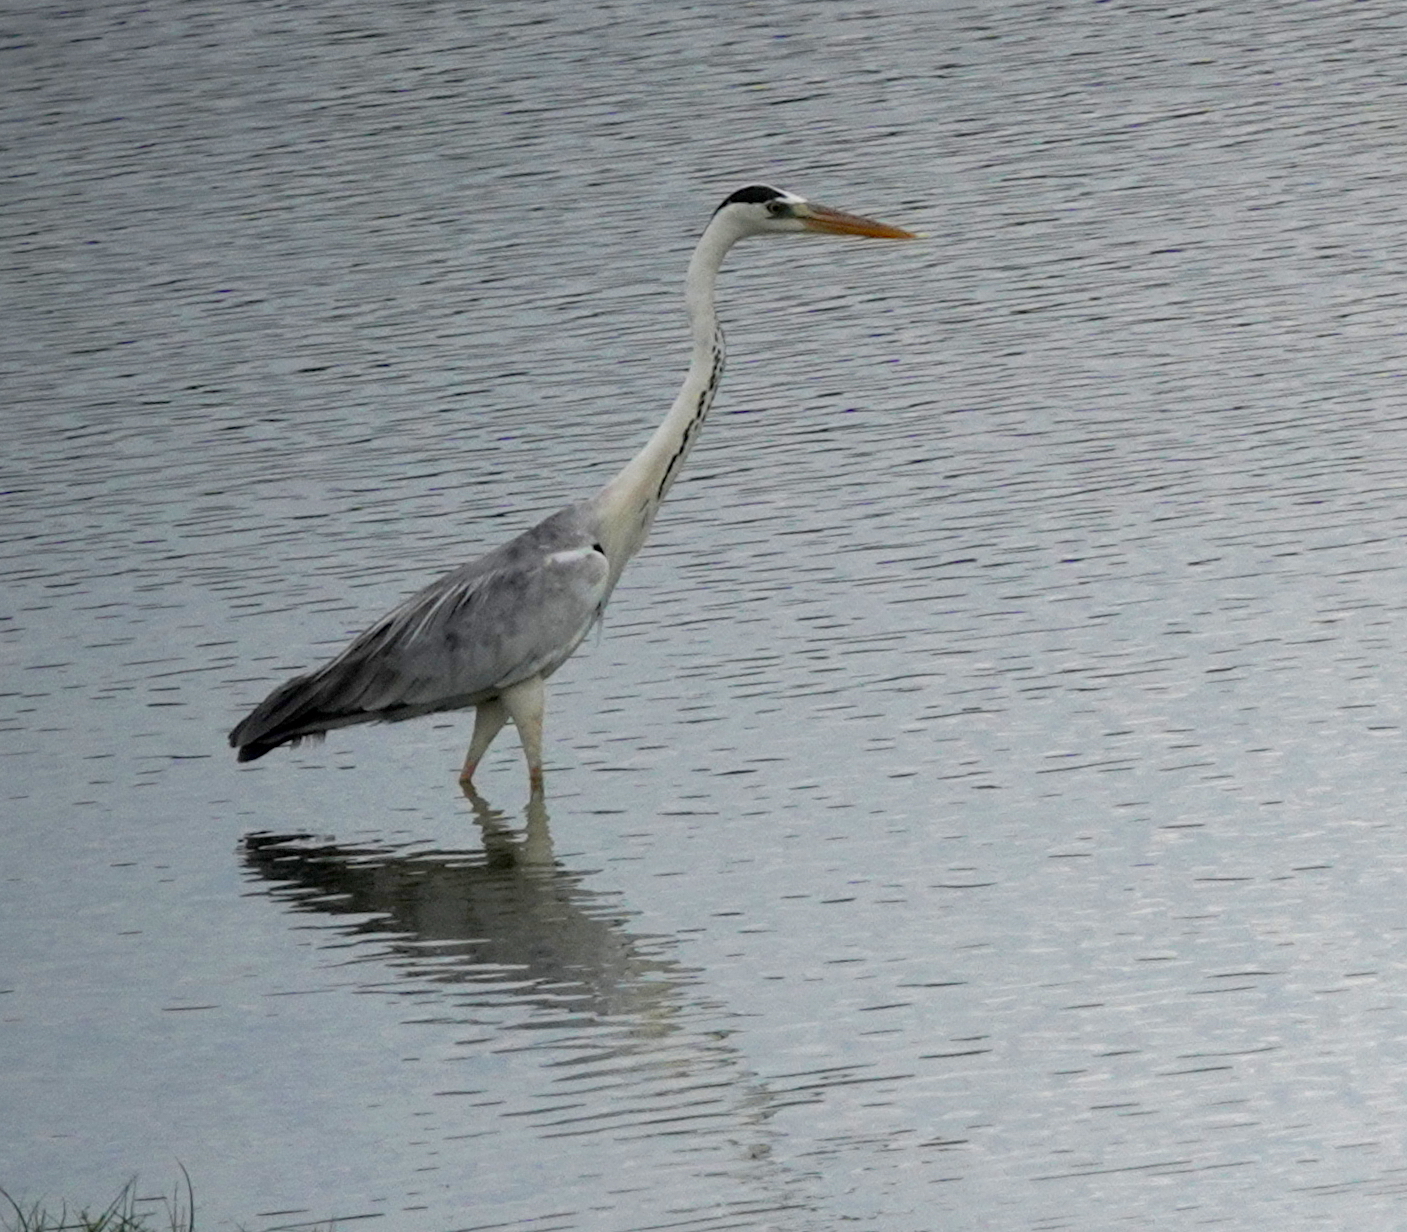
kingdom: Animalia
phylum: Chordata
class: Aves
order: Pelecaniformes
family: Ardeidae
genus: Ardea
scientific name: Ardea cinerea
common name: Grey heron
